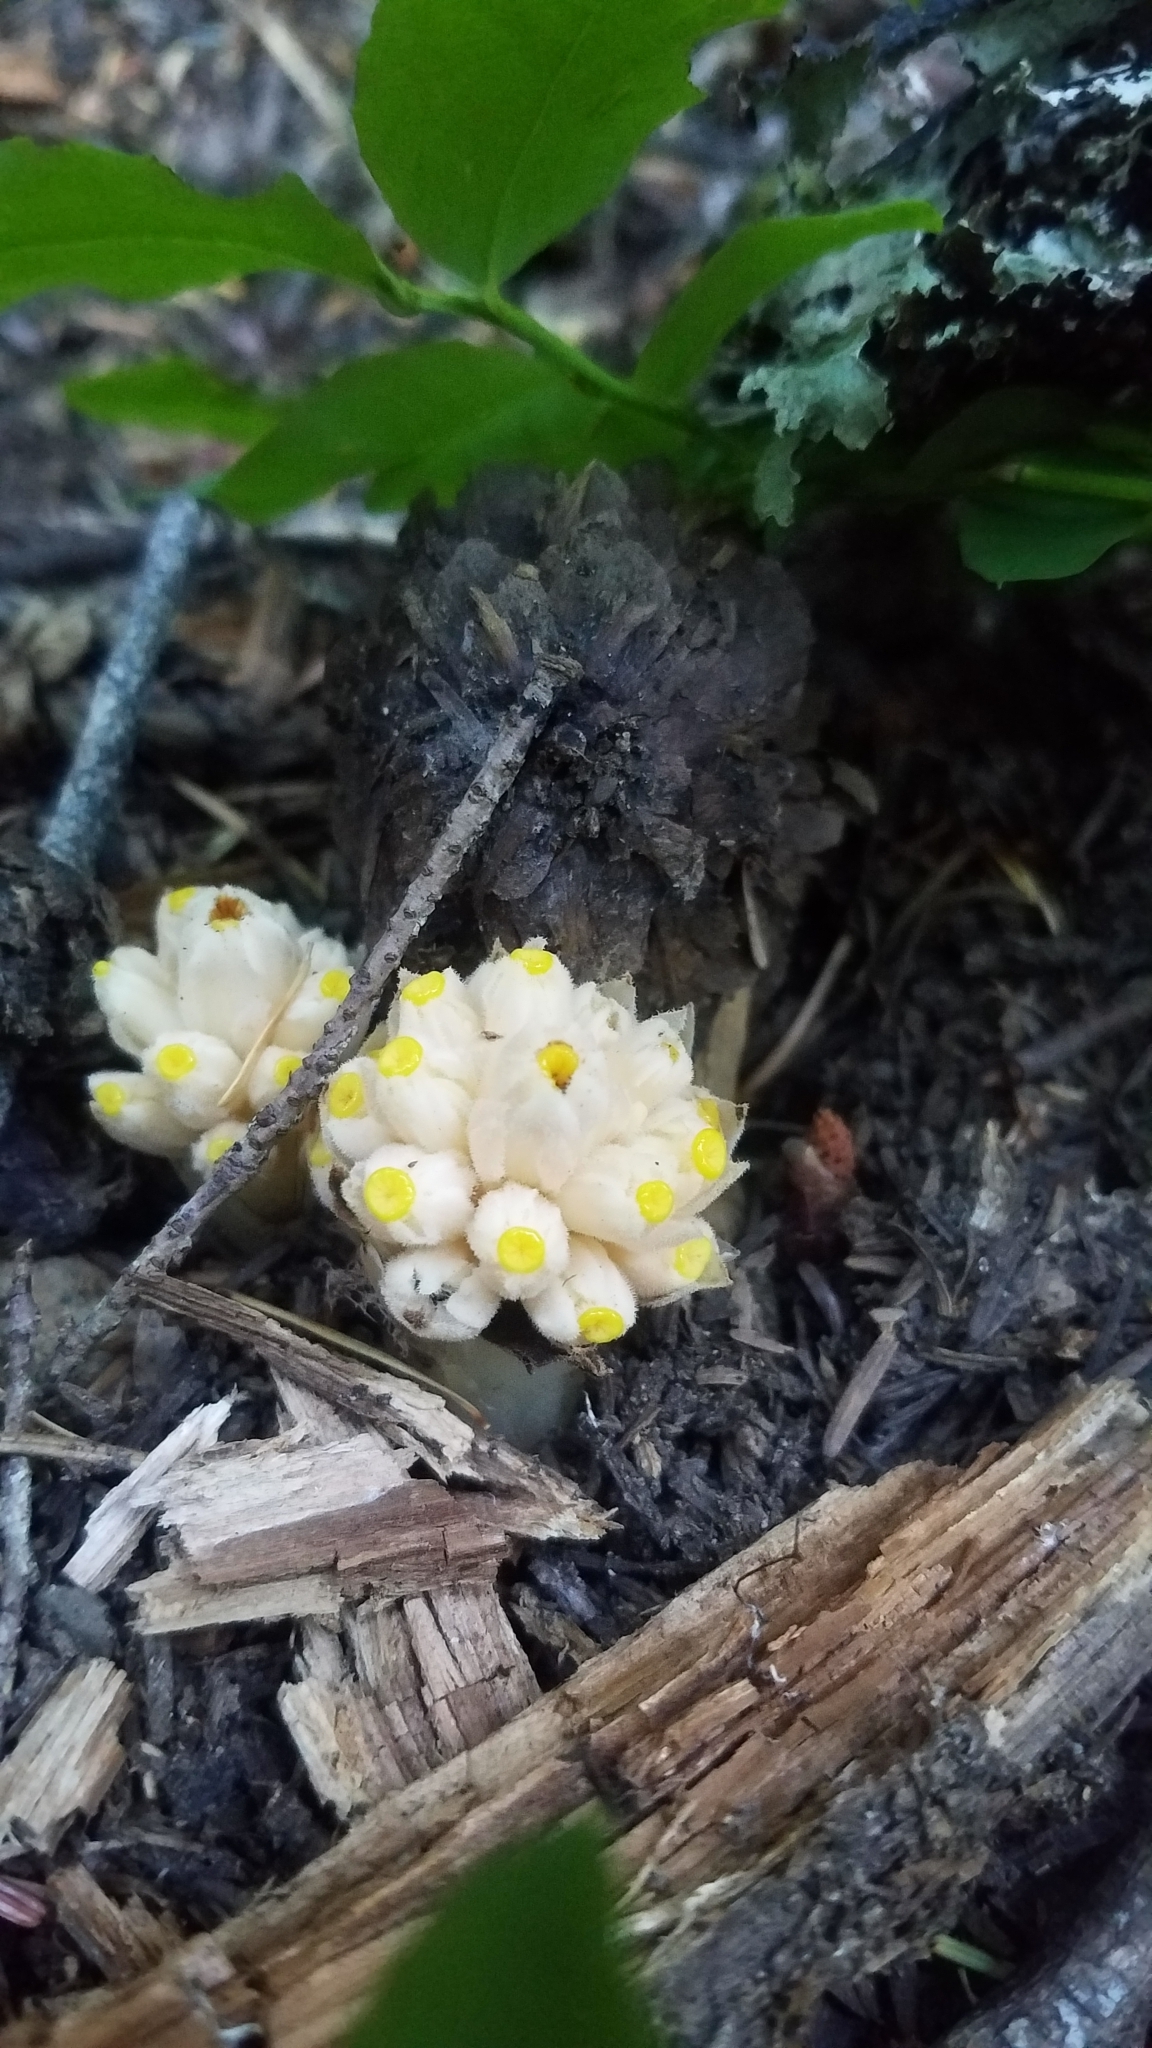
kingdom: Plantae
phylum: Tracheophyta
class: Magnoliopsida
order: Ericales
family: Ericaceae
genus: Hemitomes
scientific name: Hemitomes congestum
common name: Cone plant
